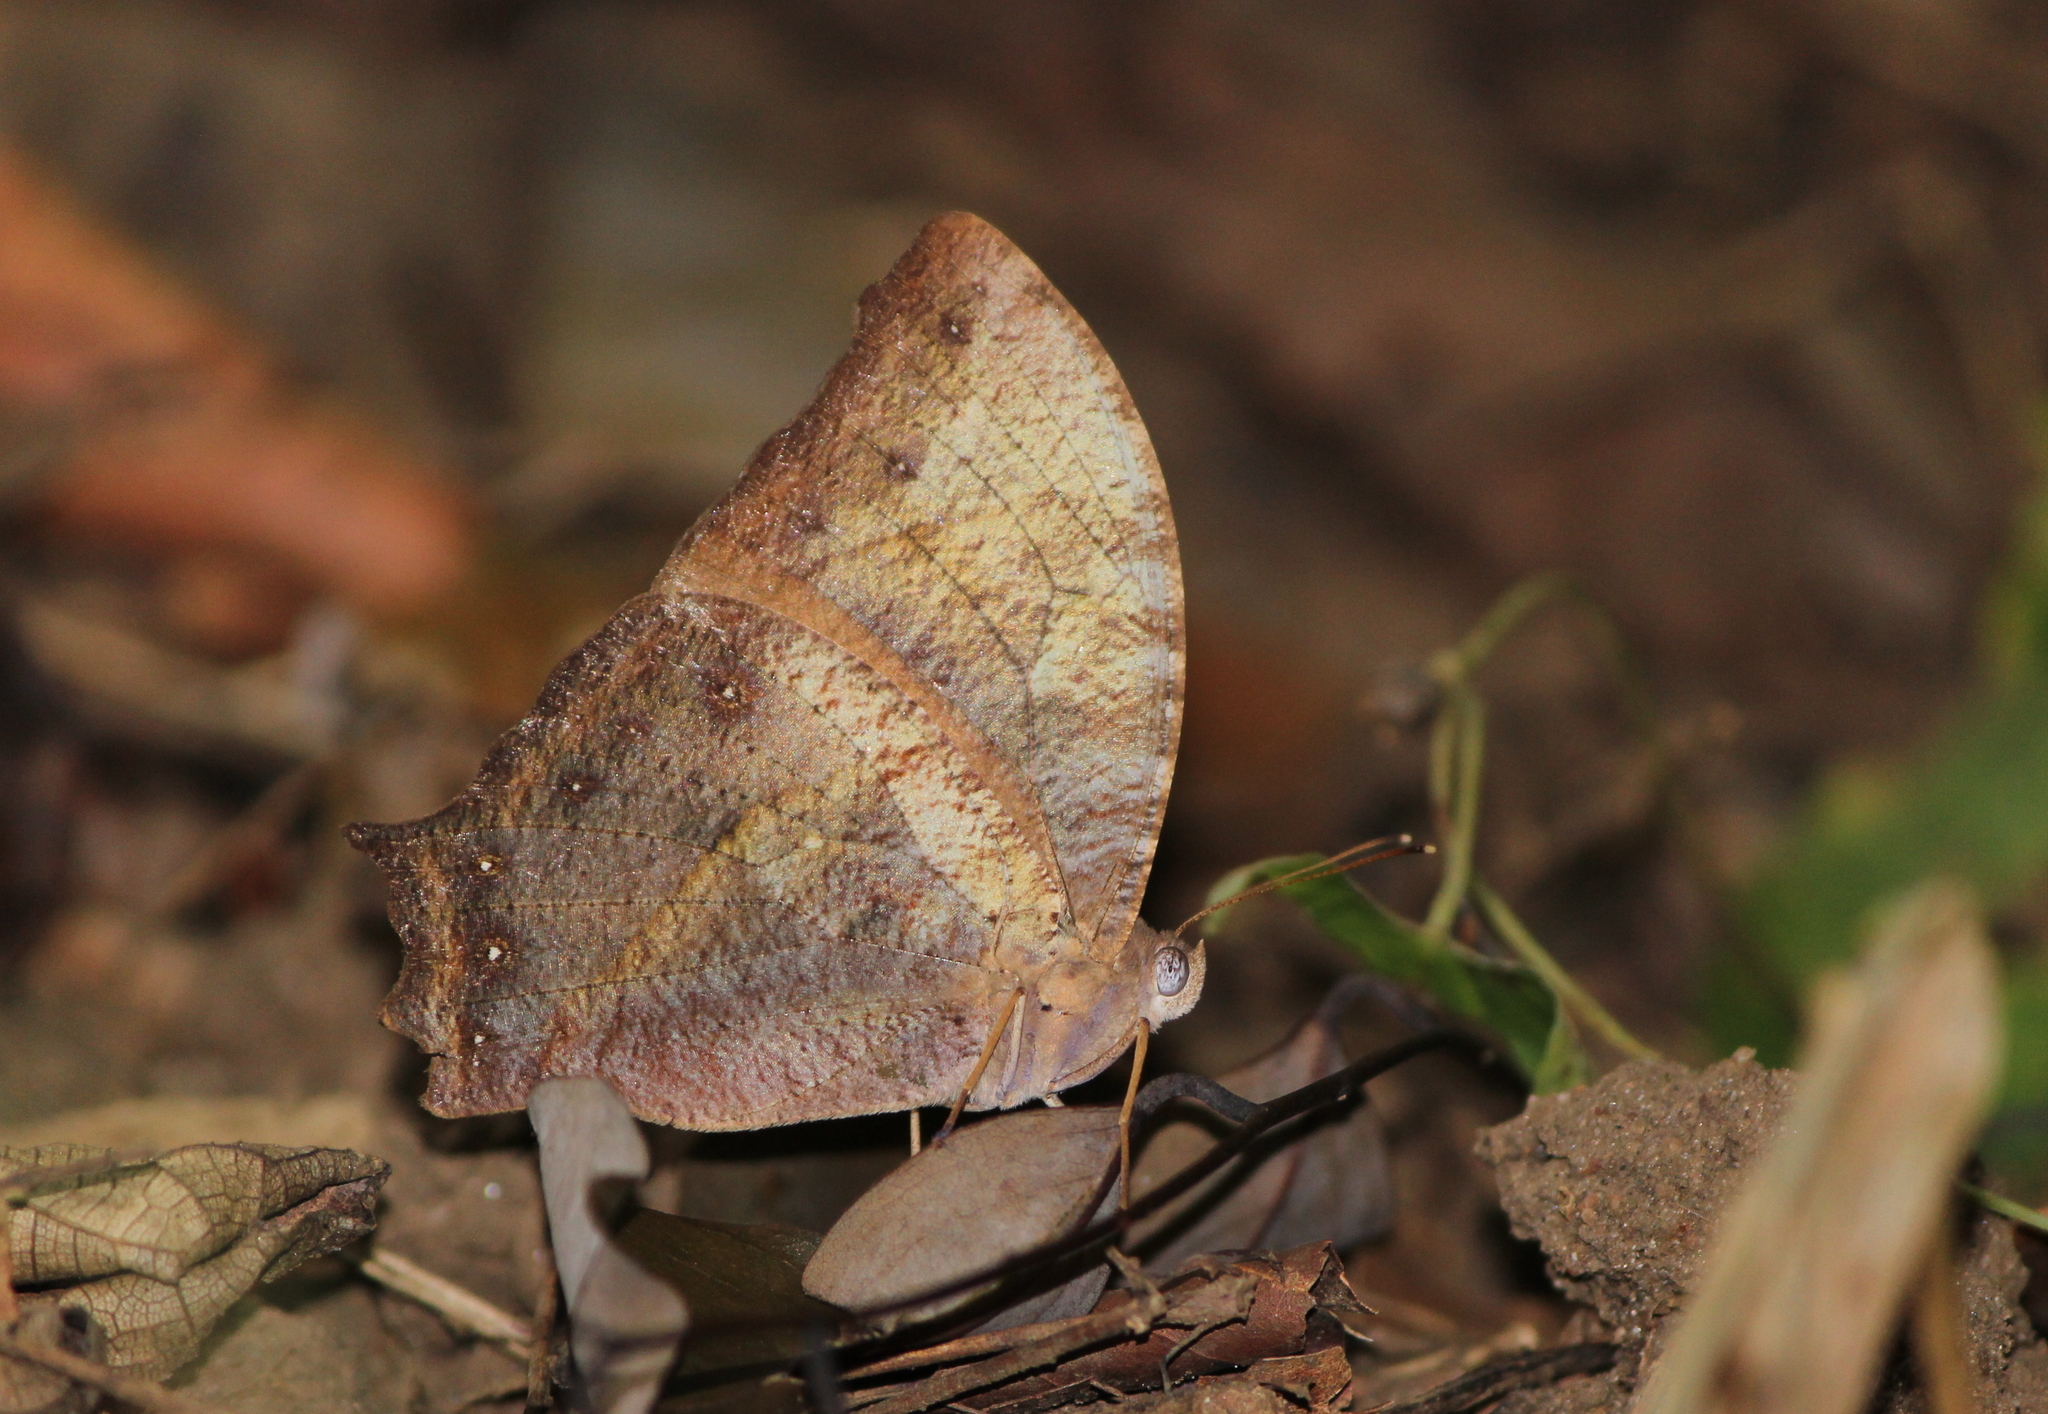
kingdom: Animalia
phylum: Arthropoda
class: Insecta
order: Lepidoptera
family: Nymphalidae
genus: Melanitis
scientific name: Melanitis phedima
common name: Dark evening brown
